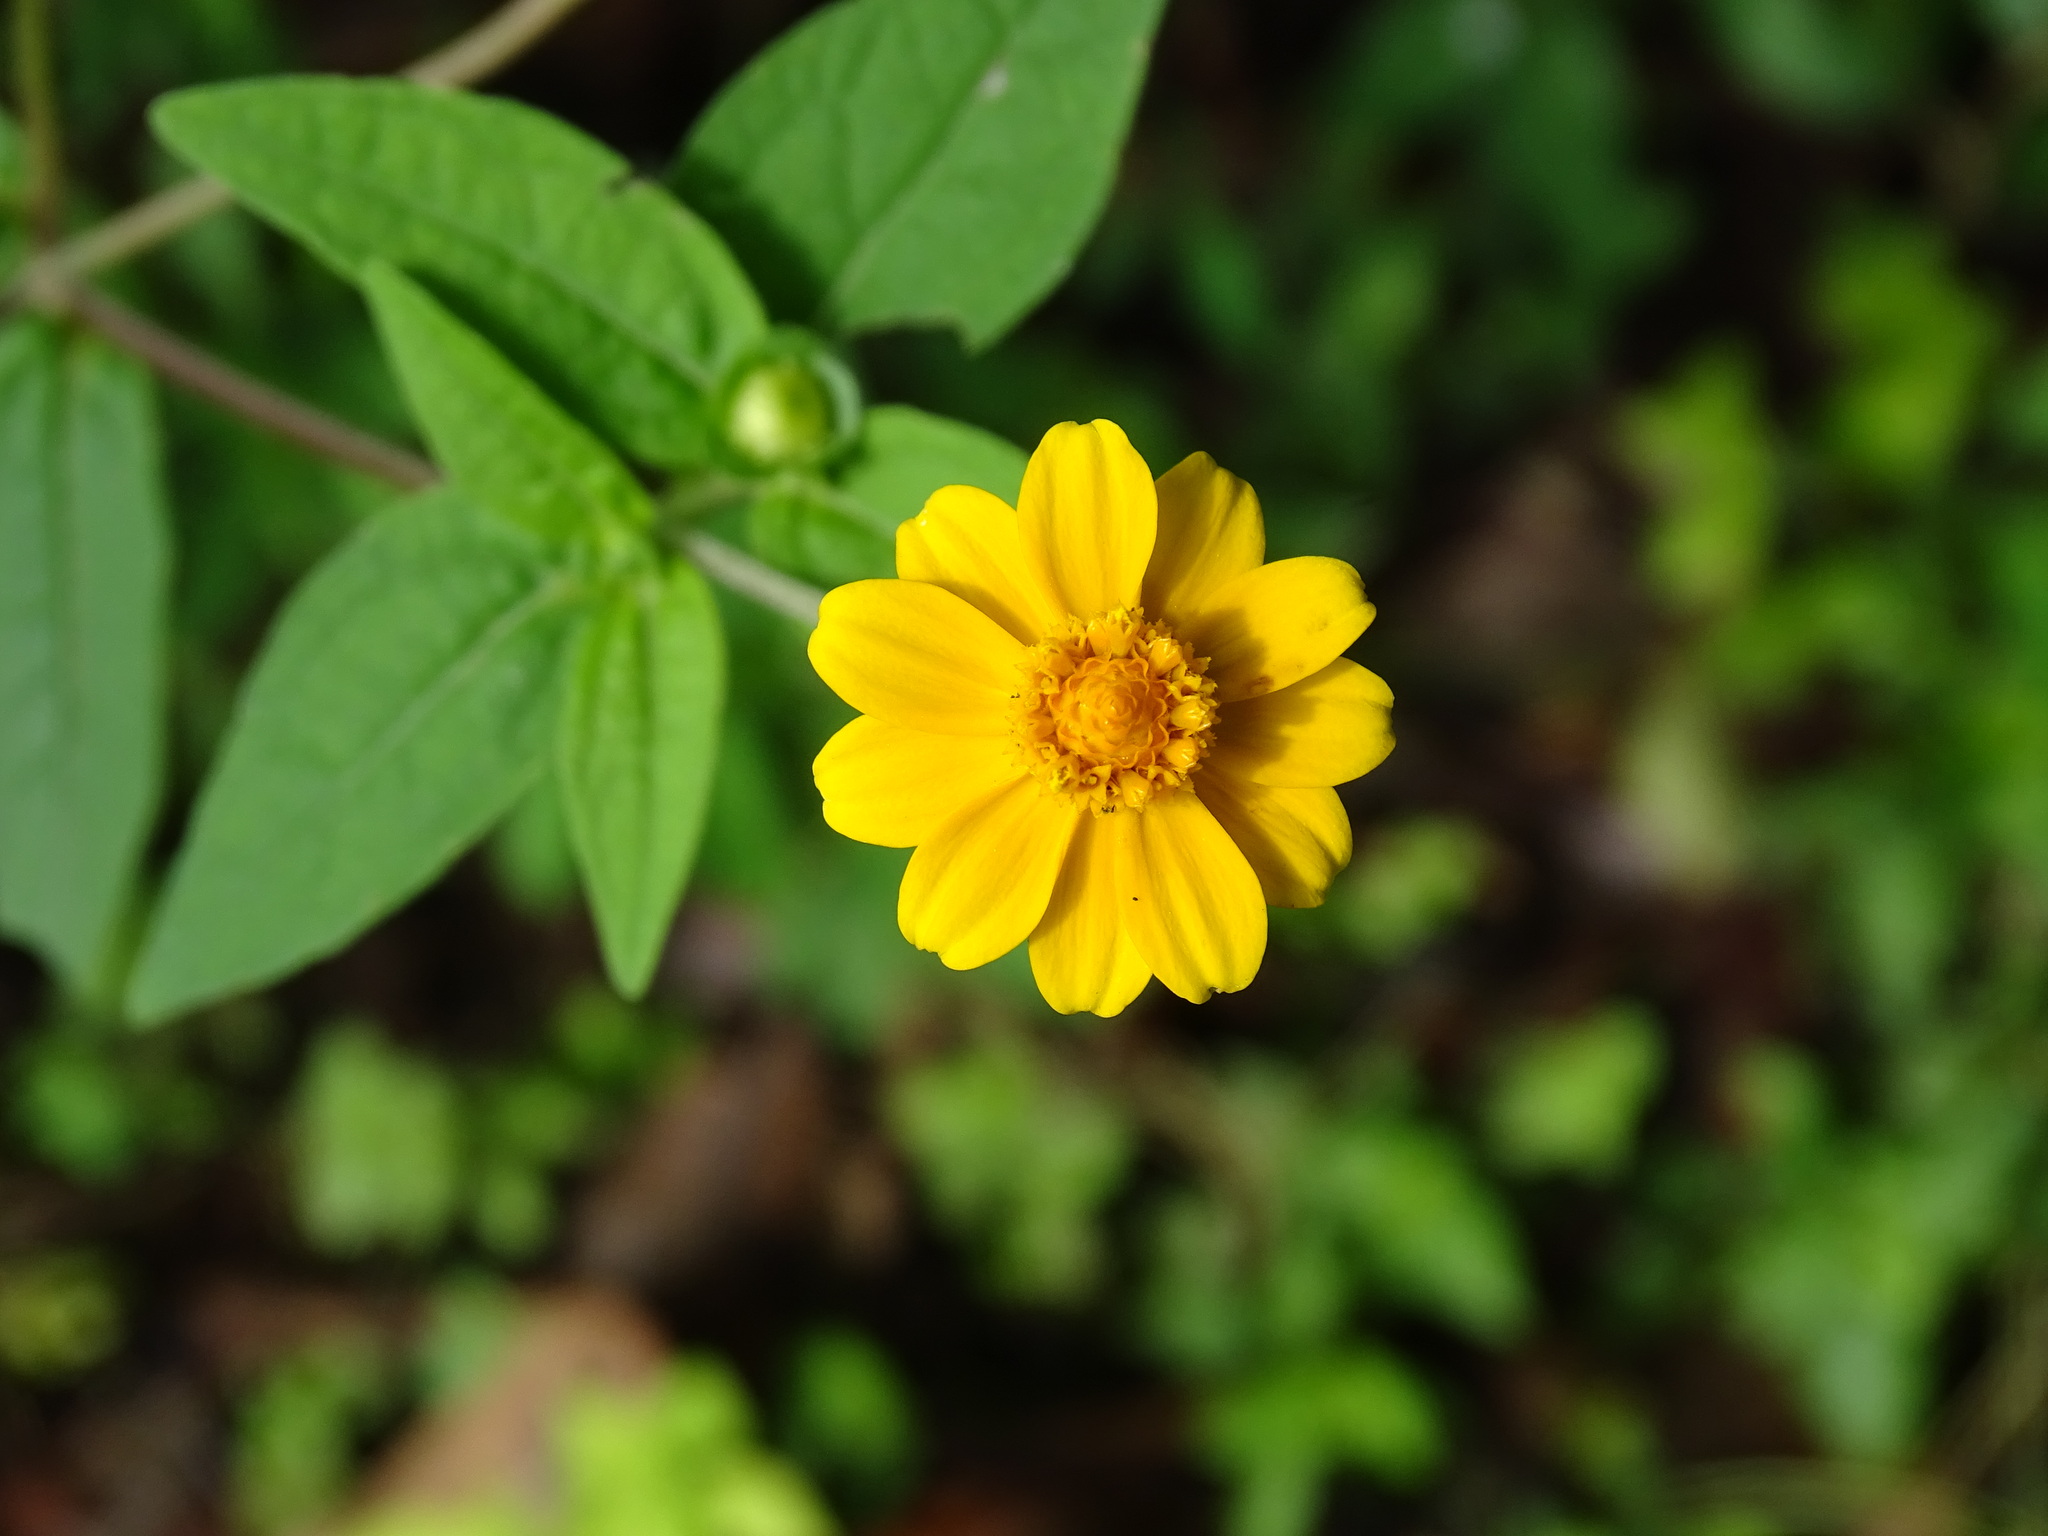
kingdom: Plantae
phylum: Tracheophyta
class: Magnoliopsida
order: Asterales
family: Asteraceae
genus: Melampodium
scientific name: Melampodium divaricatum
